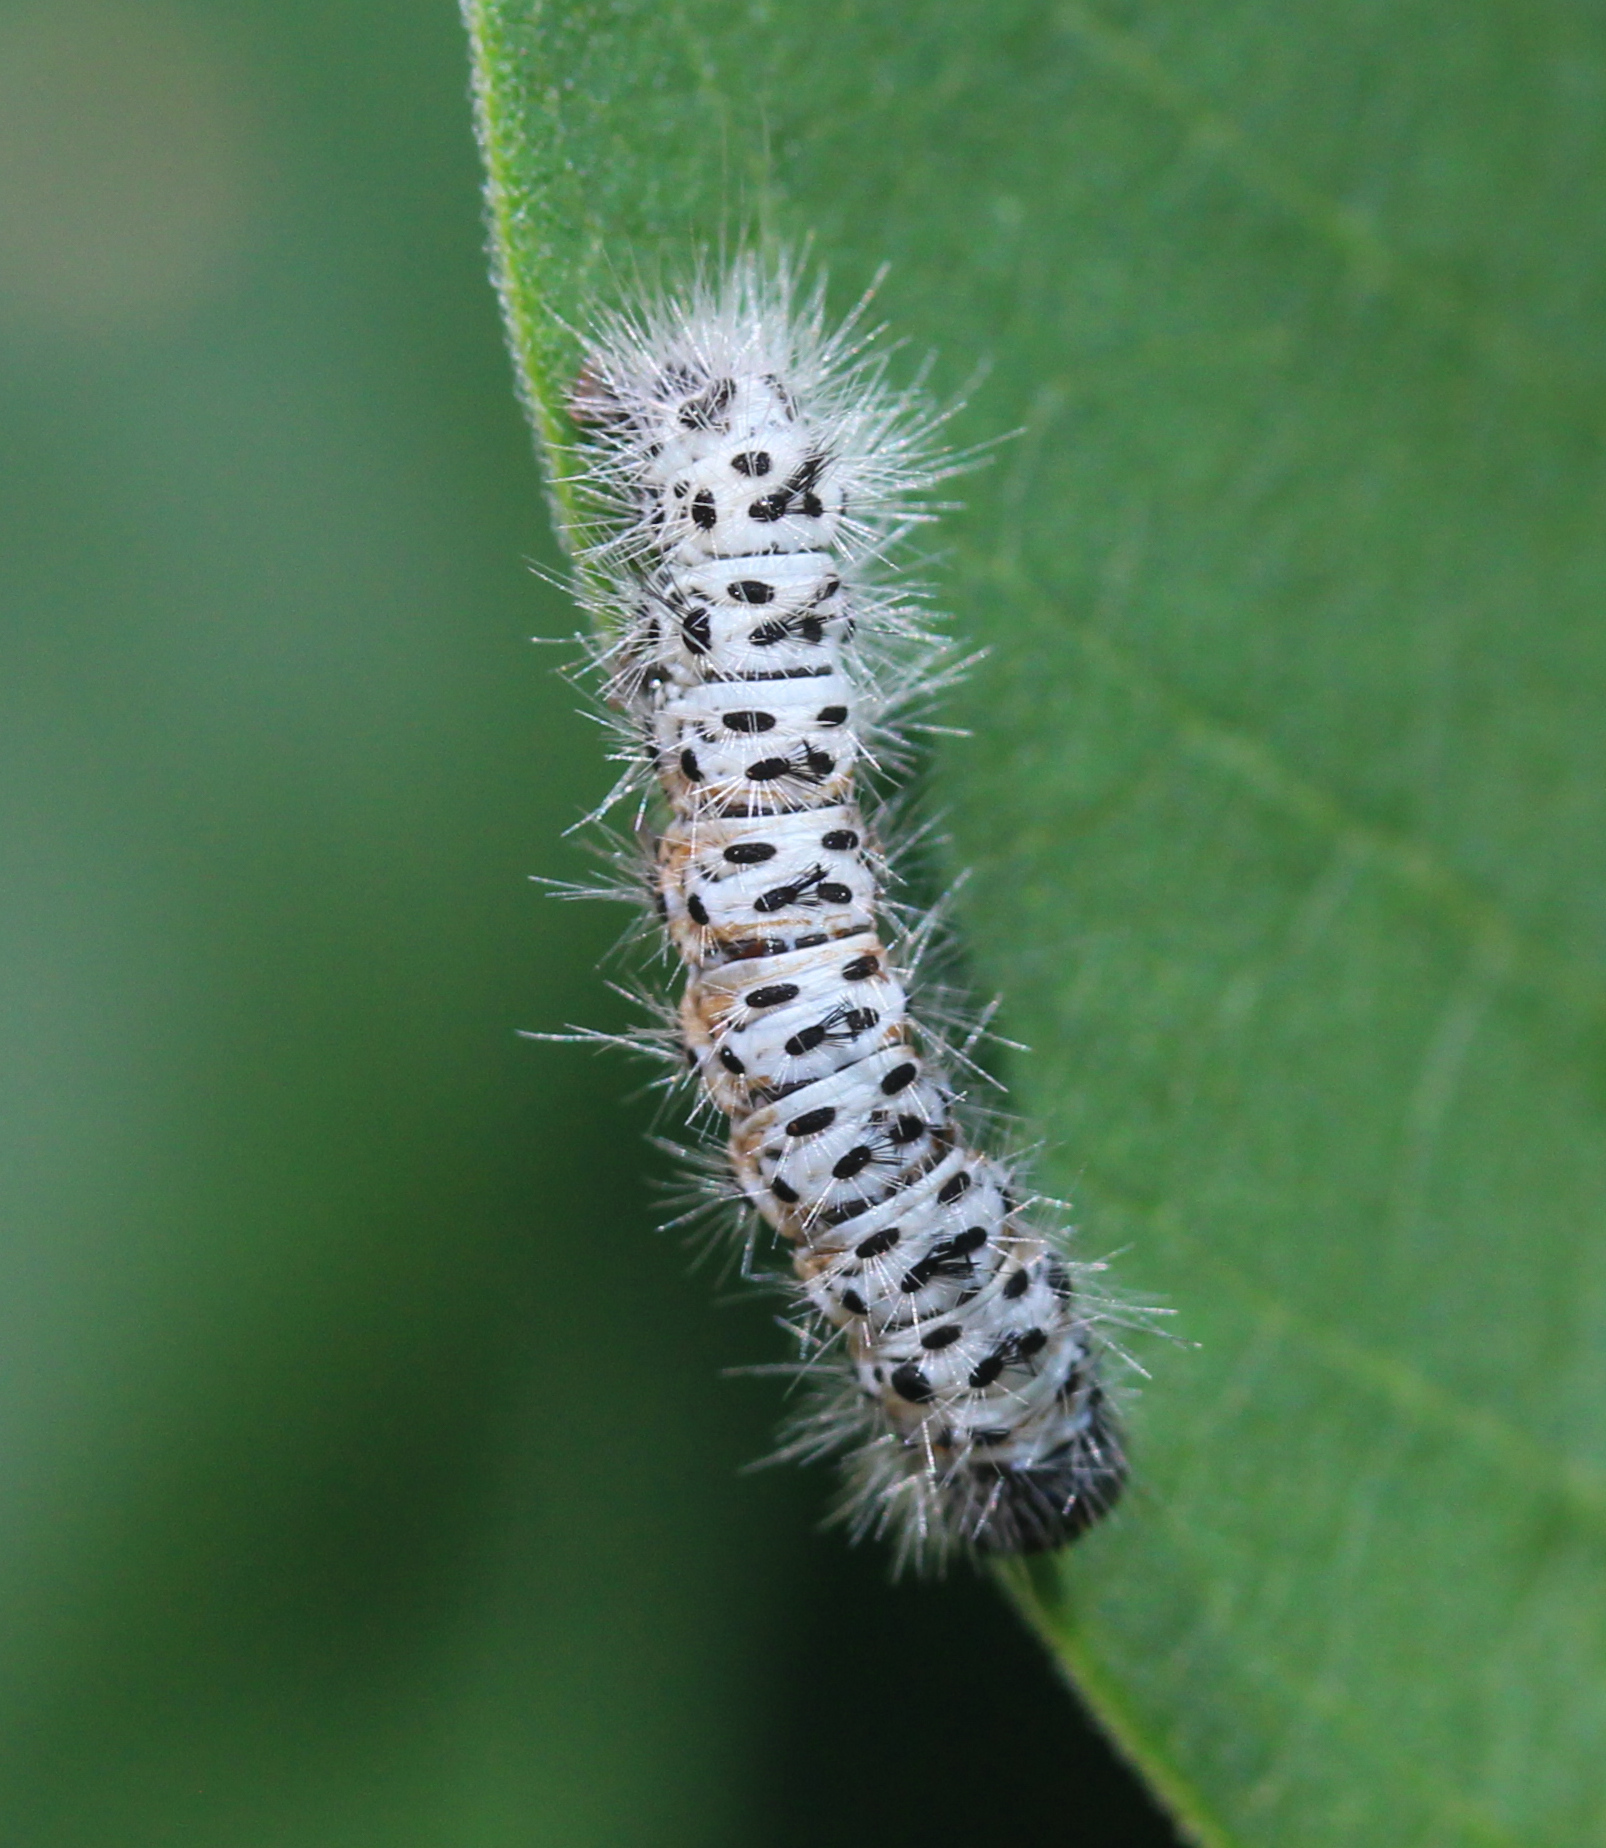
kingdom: Animalia
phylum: Arthropoda
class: Insecta
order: Lepidoptera
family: Erebidae
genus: Lophocampa
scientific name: Lophocampa caryae
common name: Hickory tussock moth
